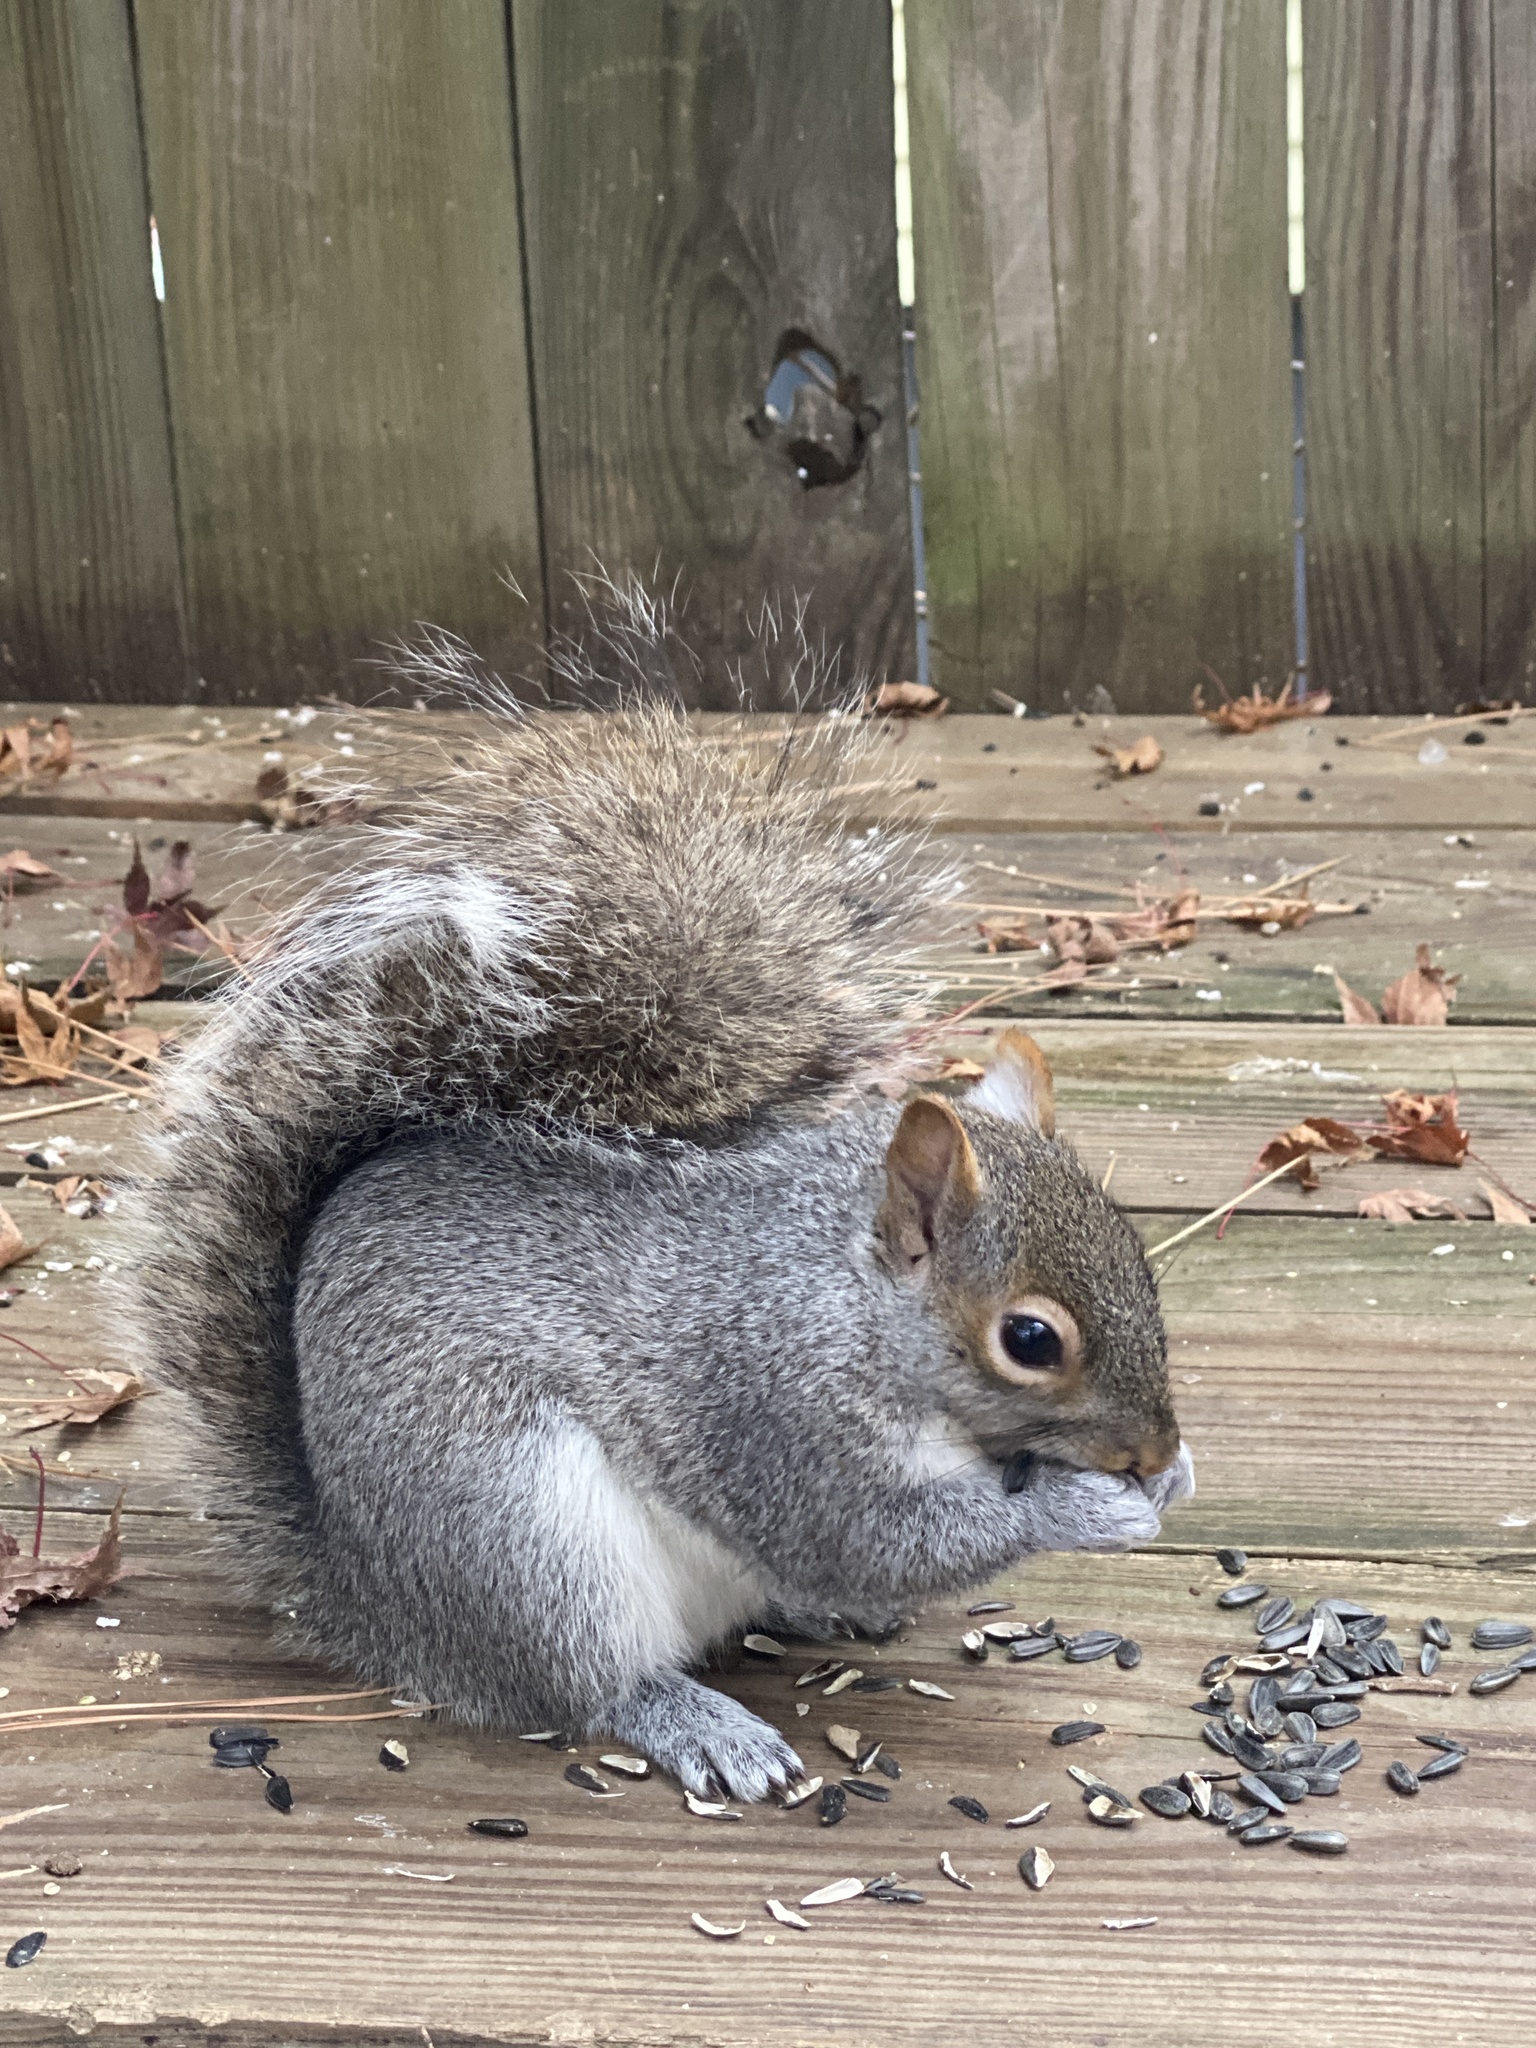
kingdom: Animalia
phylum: Chordata
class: Mammalia
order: Rodentia
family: Sciuridae
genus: Sciurus
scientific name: Sciurus carolinensis
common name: Eastern gray squirrel
